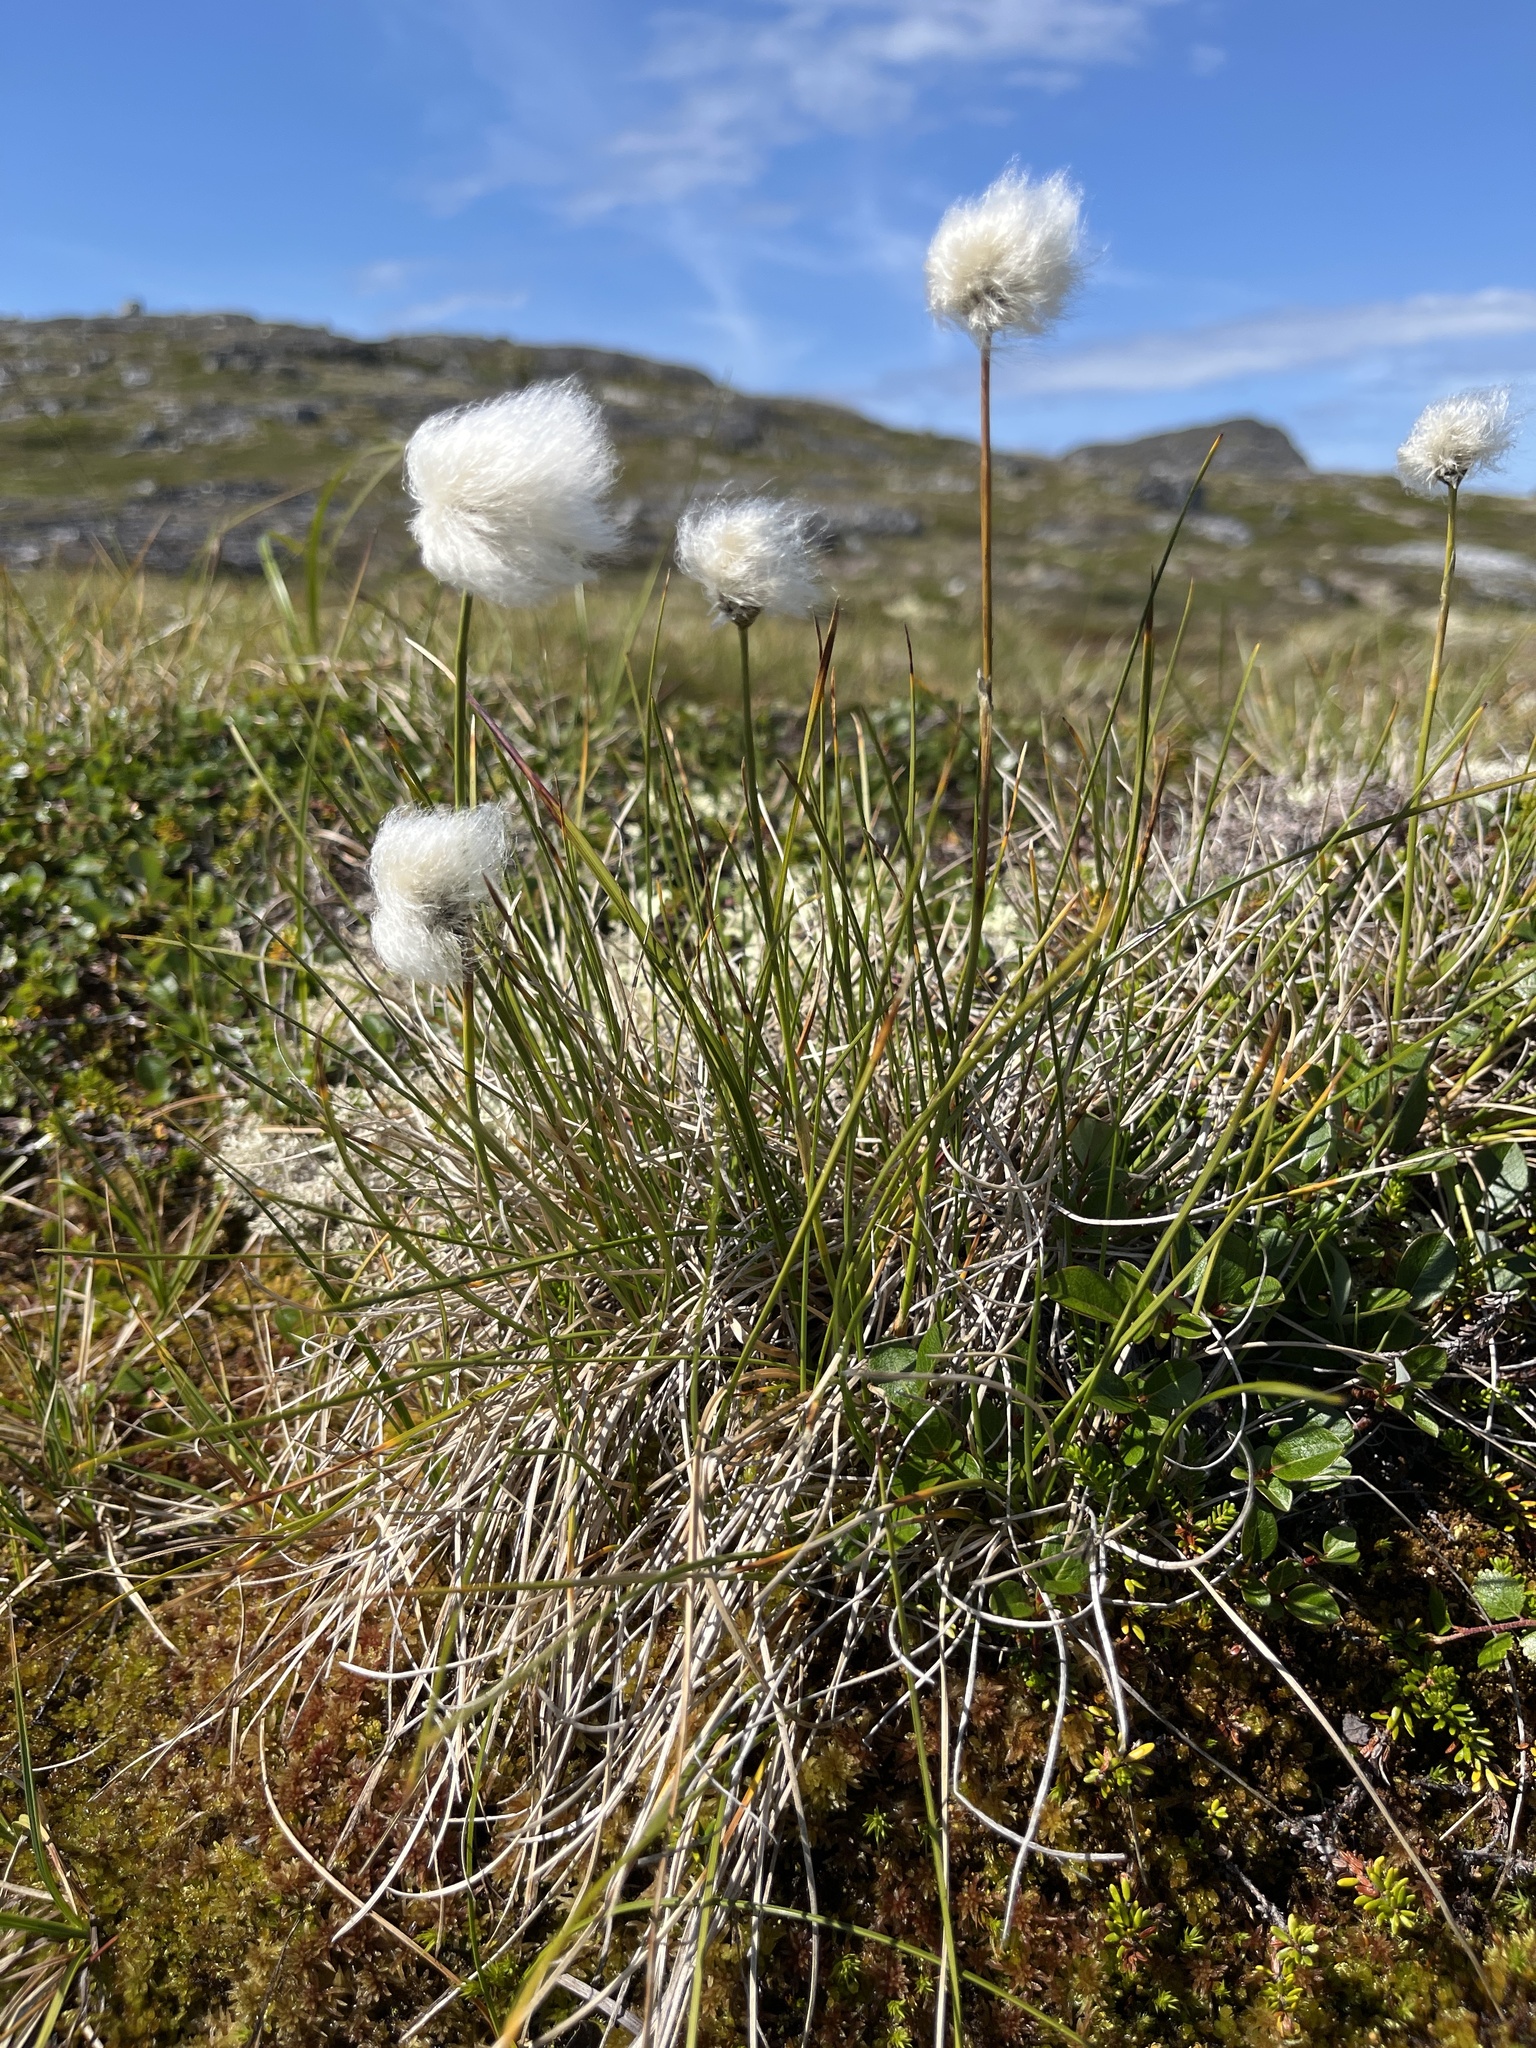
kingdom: Plantae
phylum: Tracheophyta
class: Liliopsida
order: Poales
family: Cyperaceae
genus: Eriophorum
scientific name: Eriophorum vaginatum
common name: Hare's-tail cottongrass
